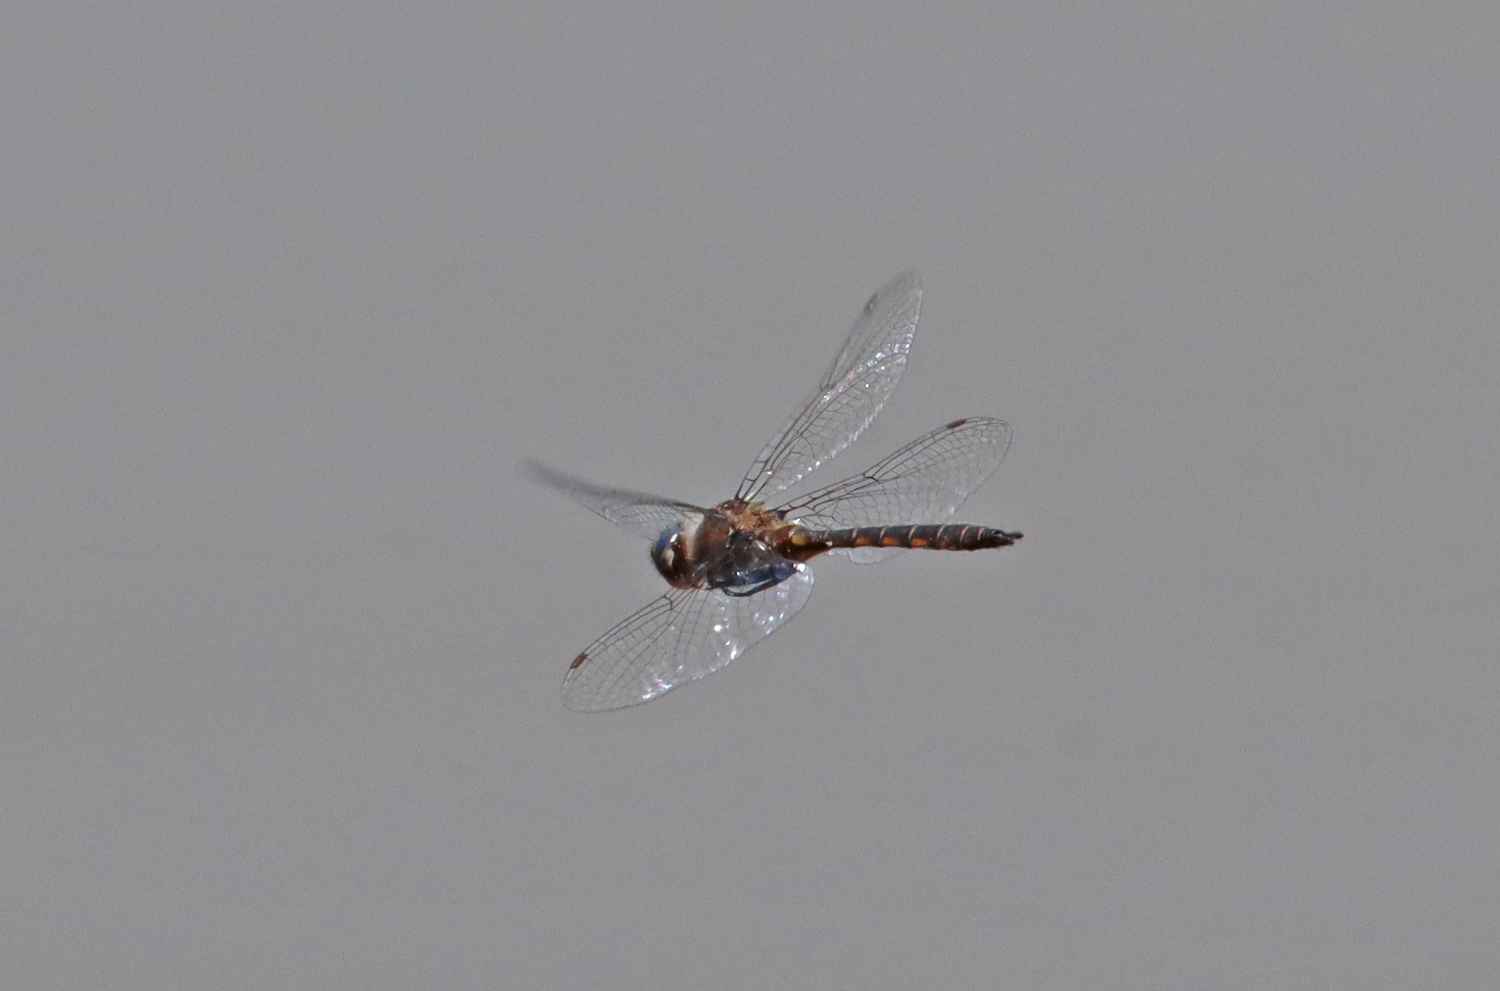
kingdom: Animalia
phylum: Arthropoda
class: Insecta
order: Odonata
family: Corduliidae
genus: Epitheca
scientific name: Epitheca
